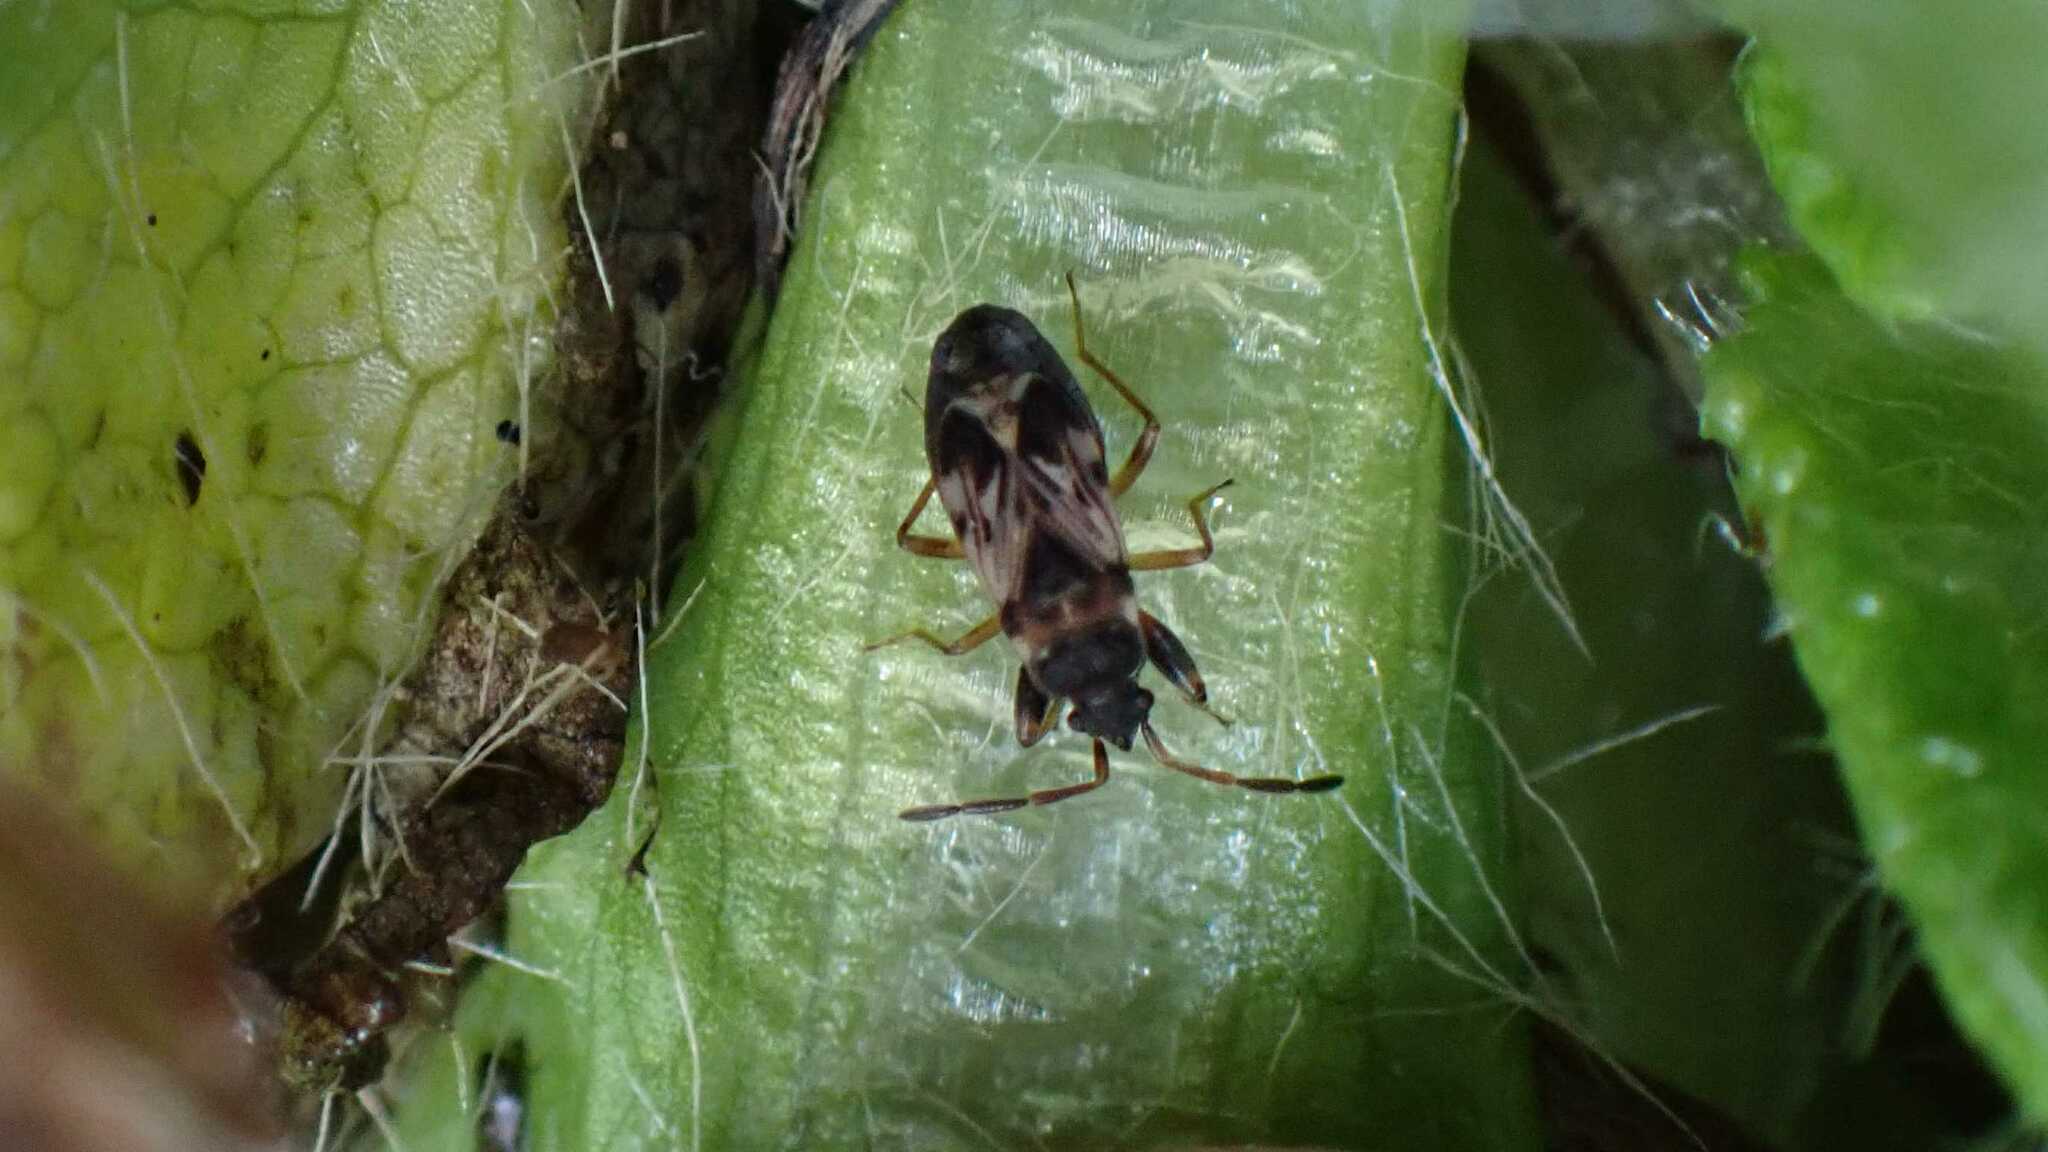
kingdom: Animalia
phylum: Arthropoda
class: Insecta
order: Hemiptera
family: Rhyparochromidae
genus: Scolopostethus
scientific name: Scolopostethus affinis
